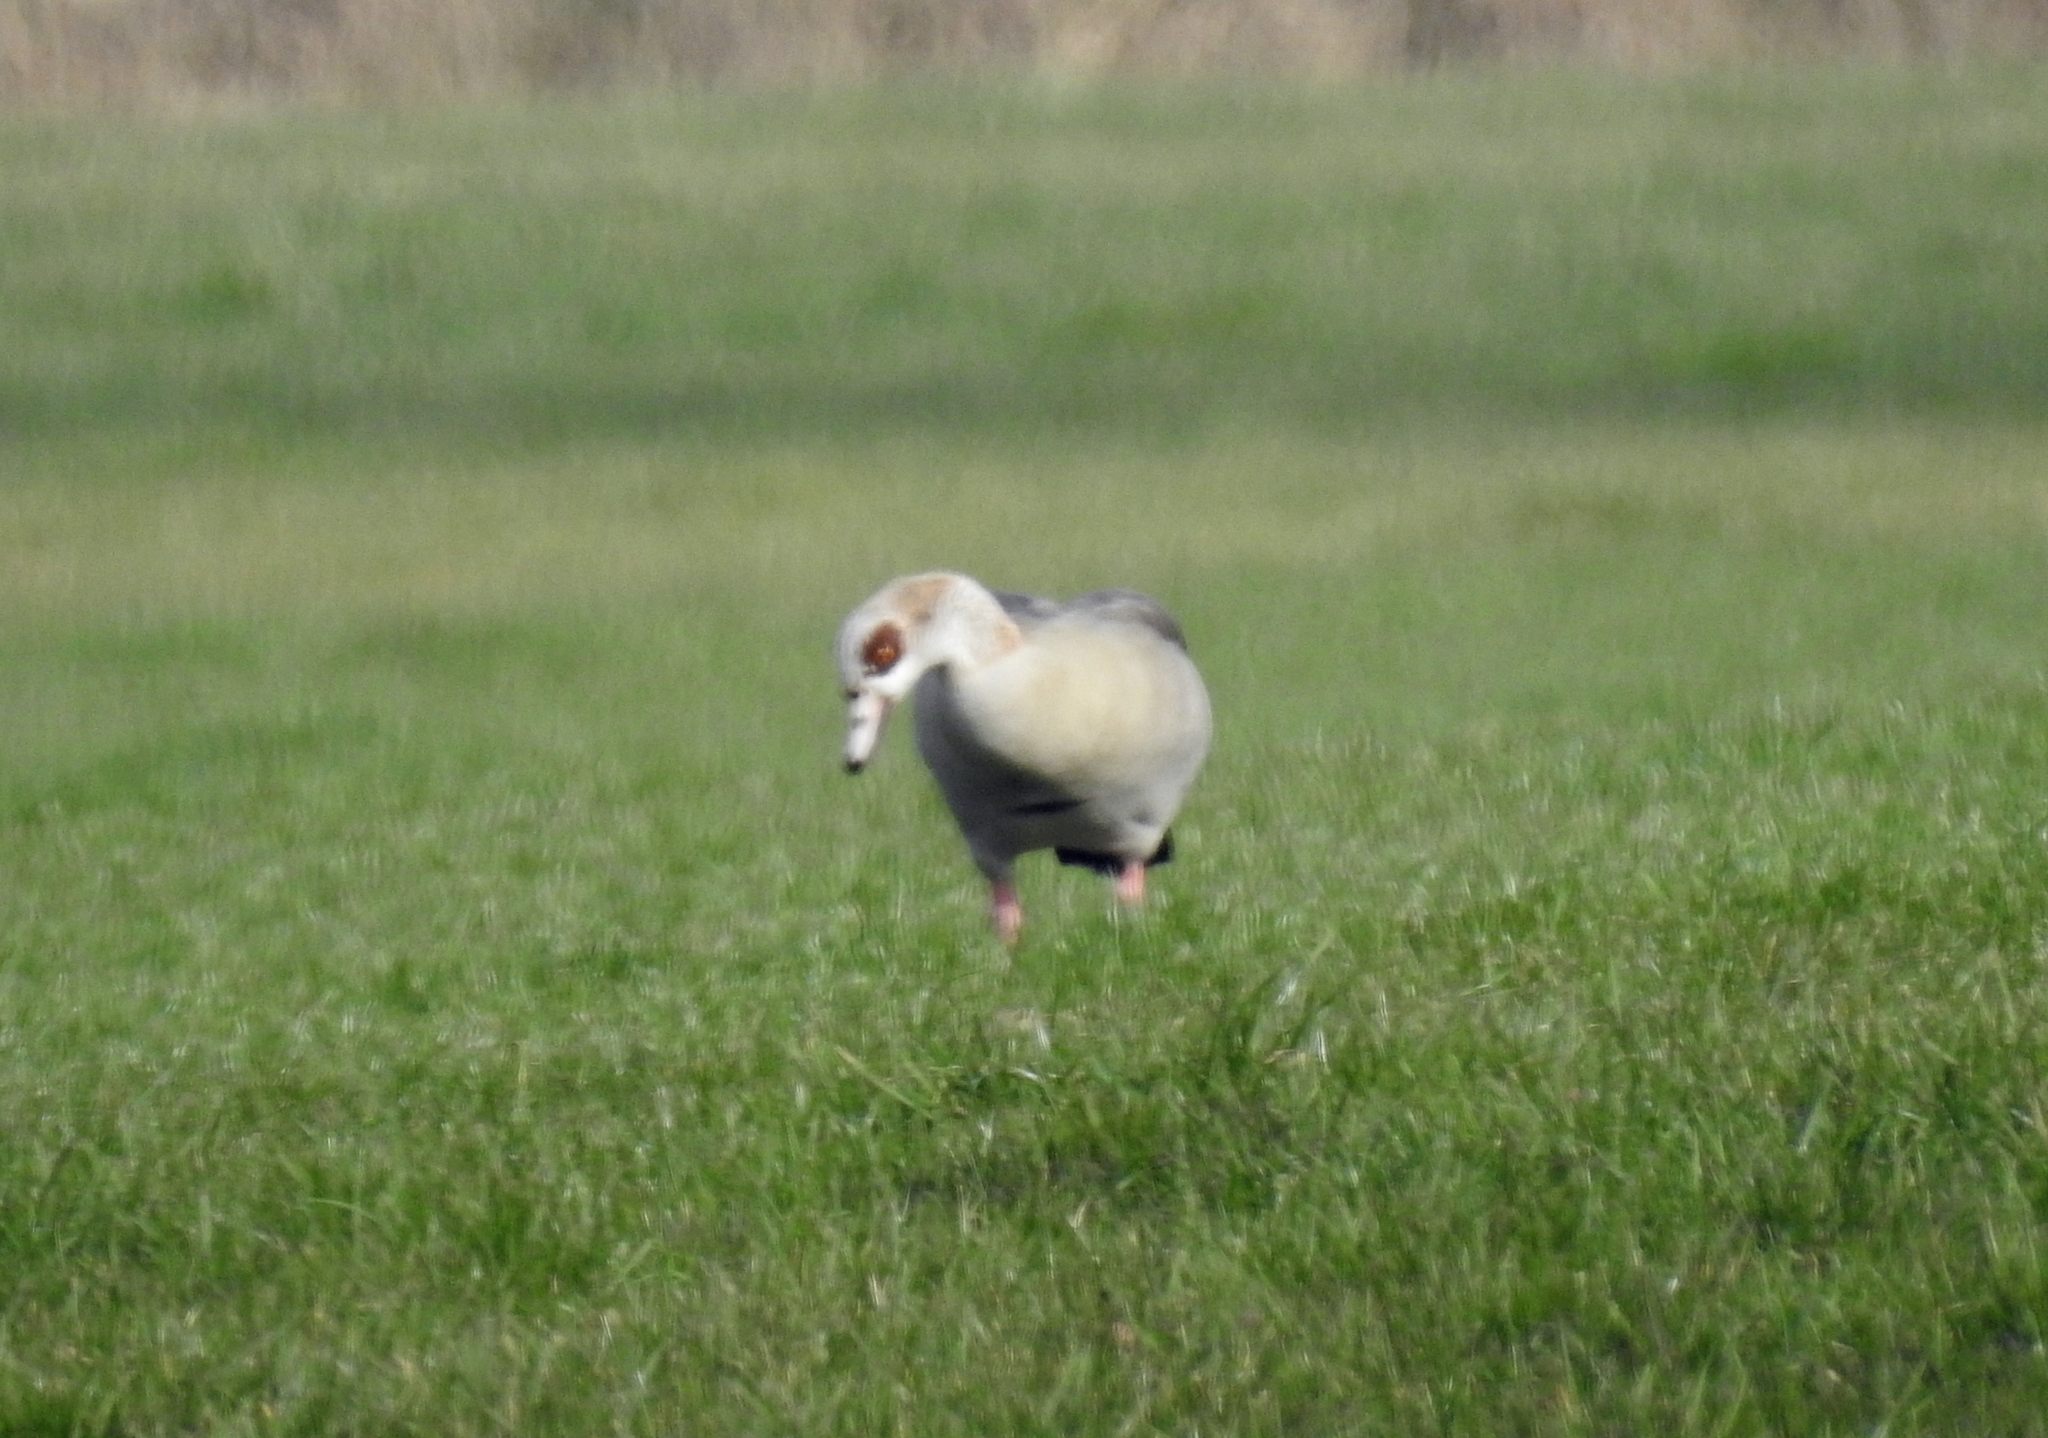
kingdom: Animalia
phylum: Chordata
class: Aves
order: Anseriformes
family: Anatidae
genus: Alopochen
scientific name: Alopochen aegyptiaca
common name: Egyptian goose
